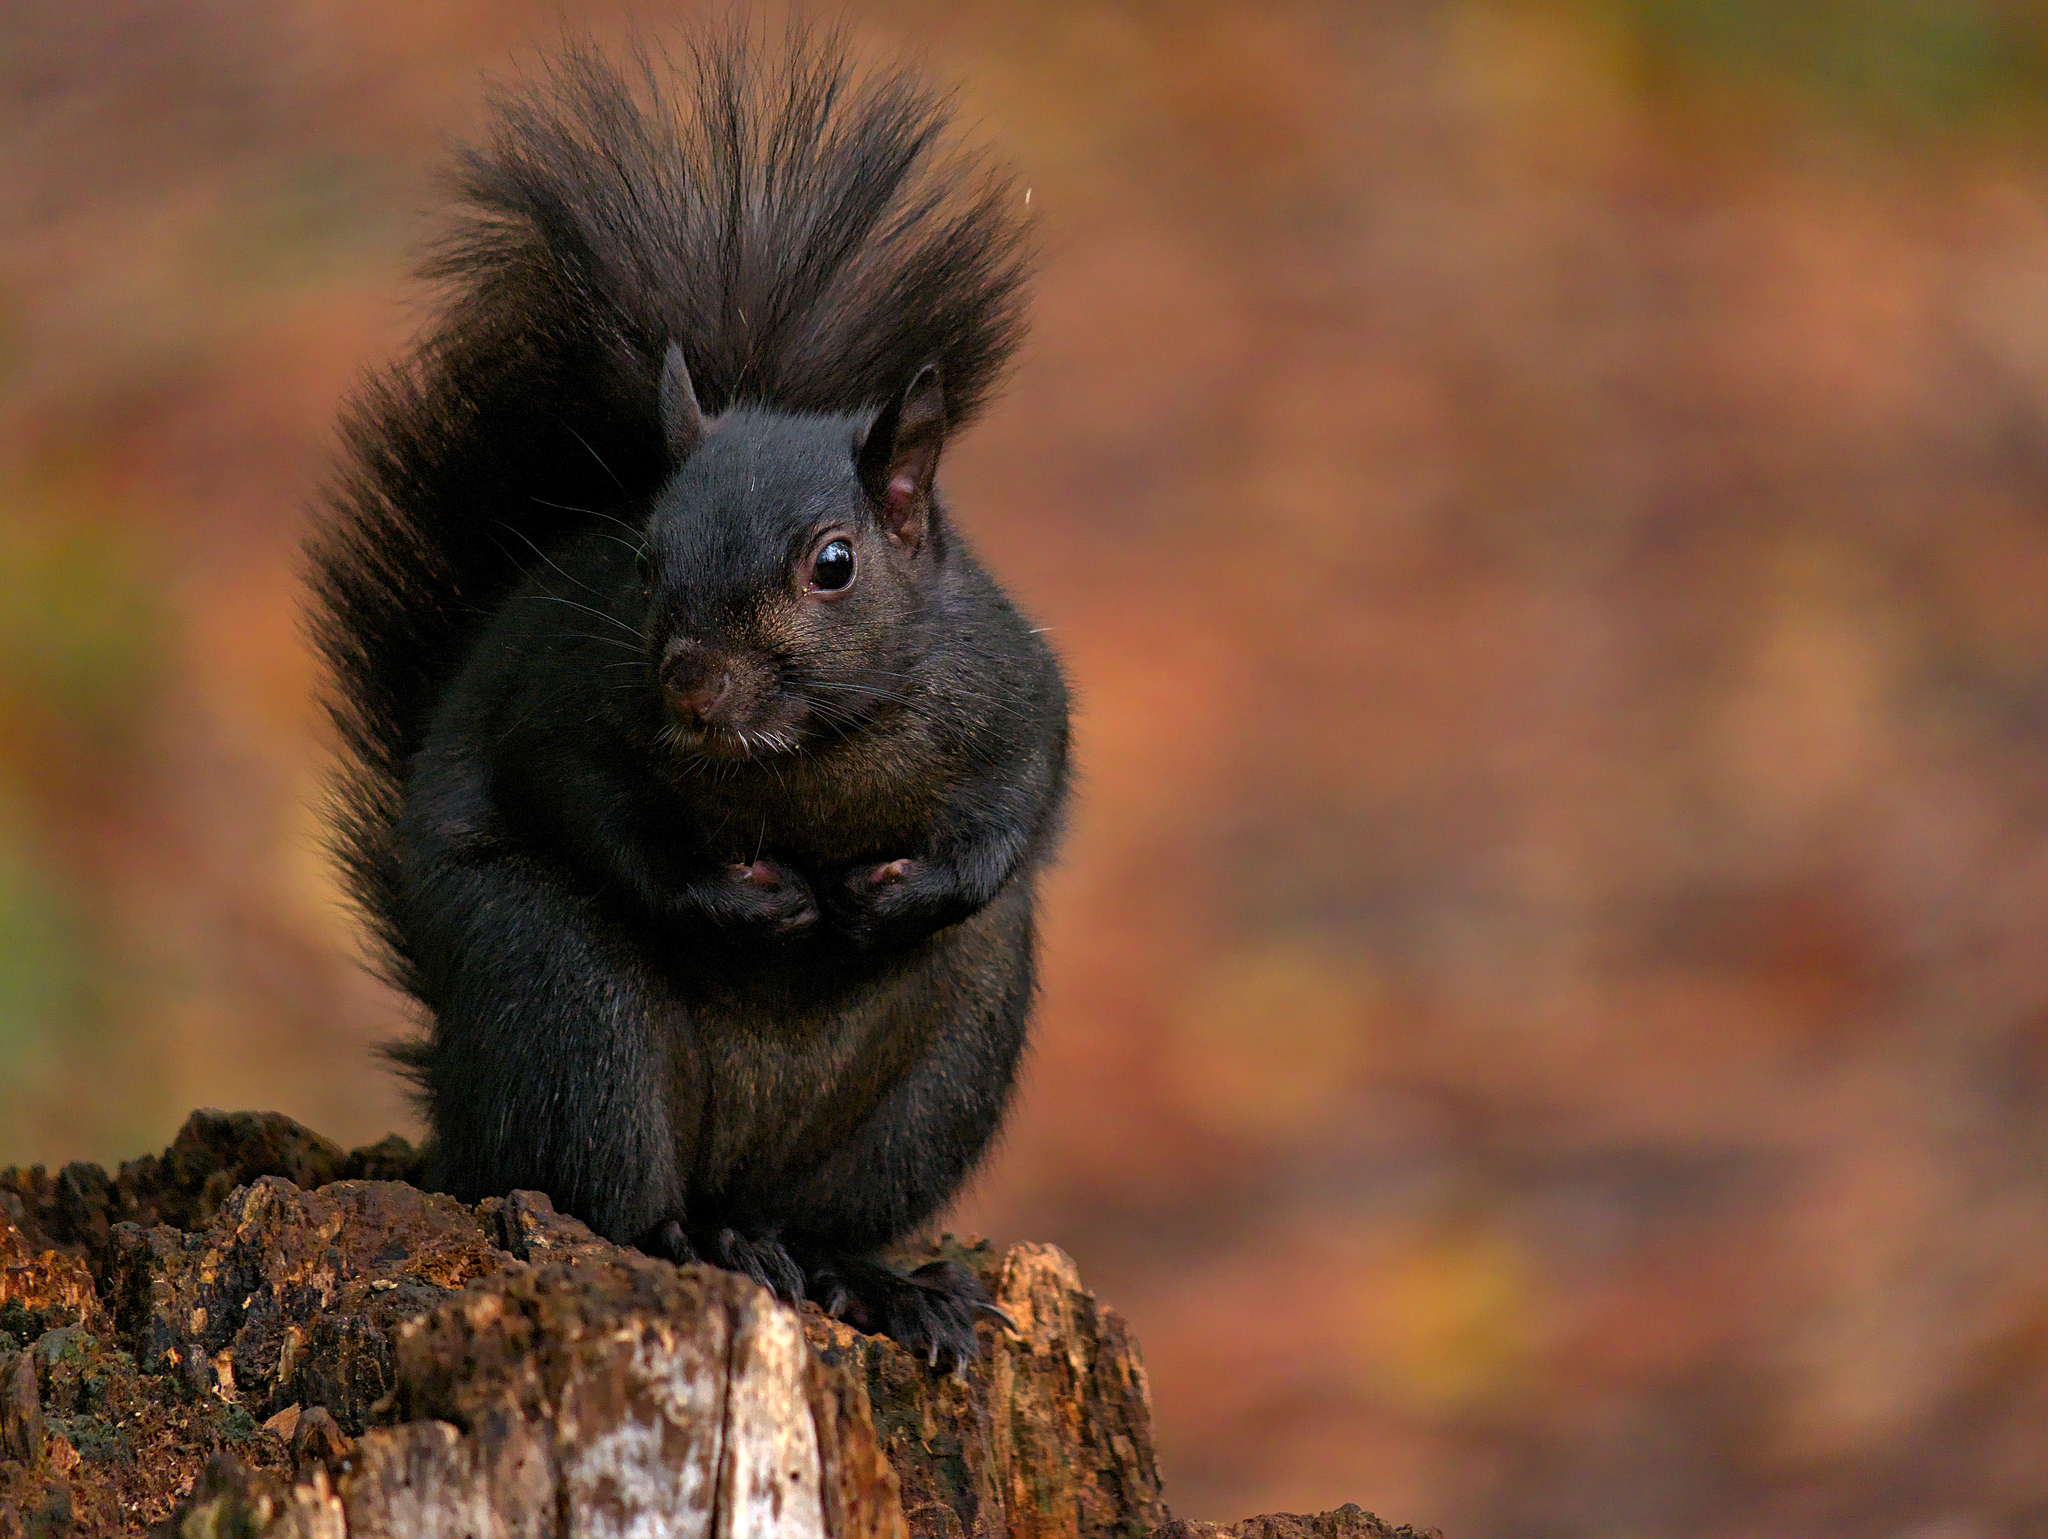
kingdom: Animalia
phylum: Chordata
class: Mammalia
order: Rodentia
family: Sciuridae
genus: Sciurus
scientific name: Sciurus carolinensis
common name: Eastern gray squirrel
